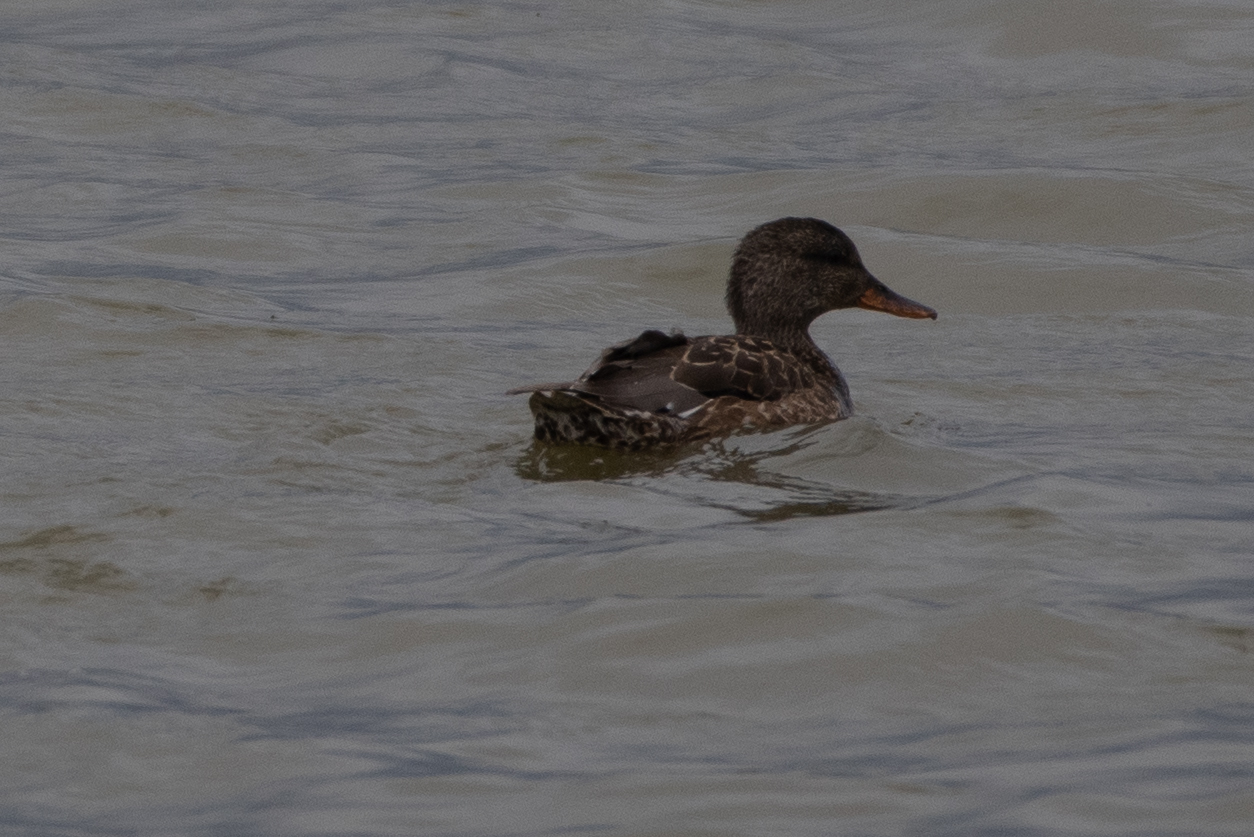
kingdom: Animalia
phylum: Chordata
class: Aves
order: Anseriformes
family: Anatidae
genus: Mareca
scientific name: Mareca strepera
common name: Gadwall
